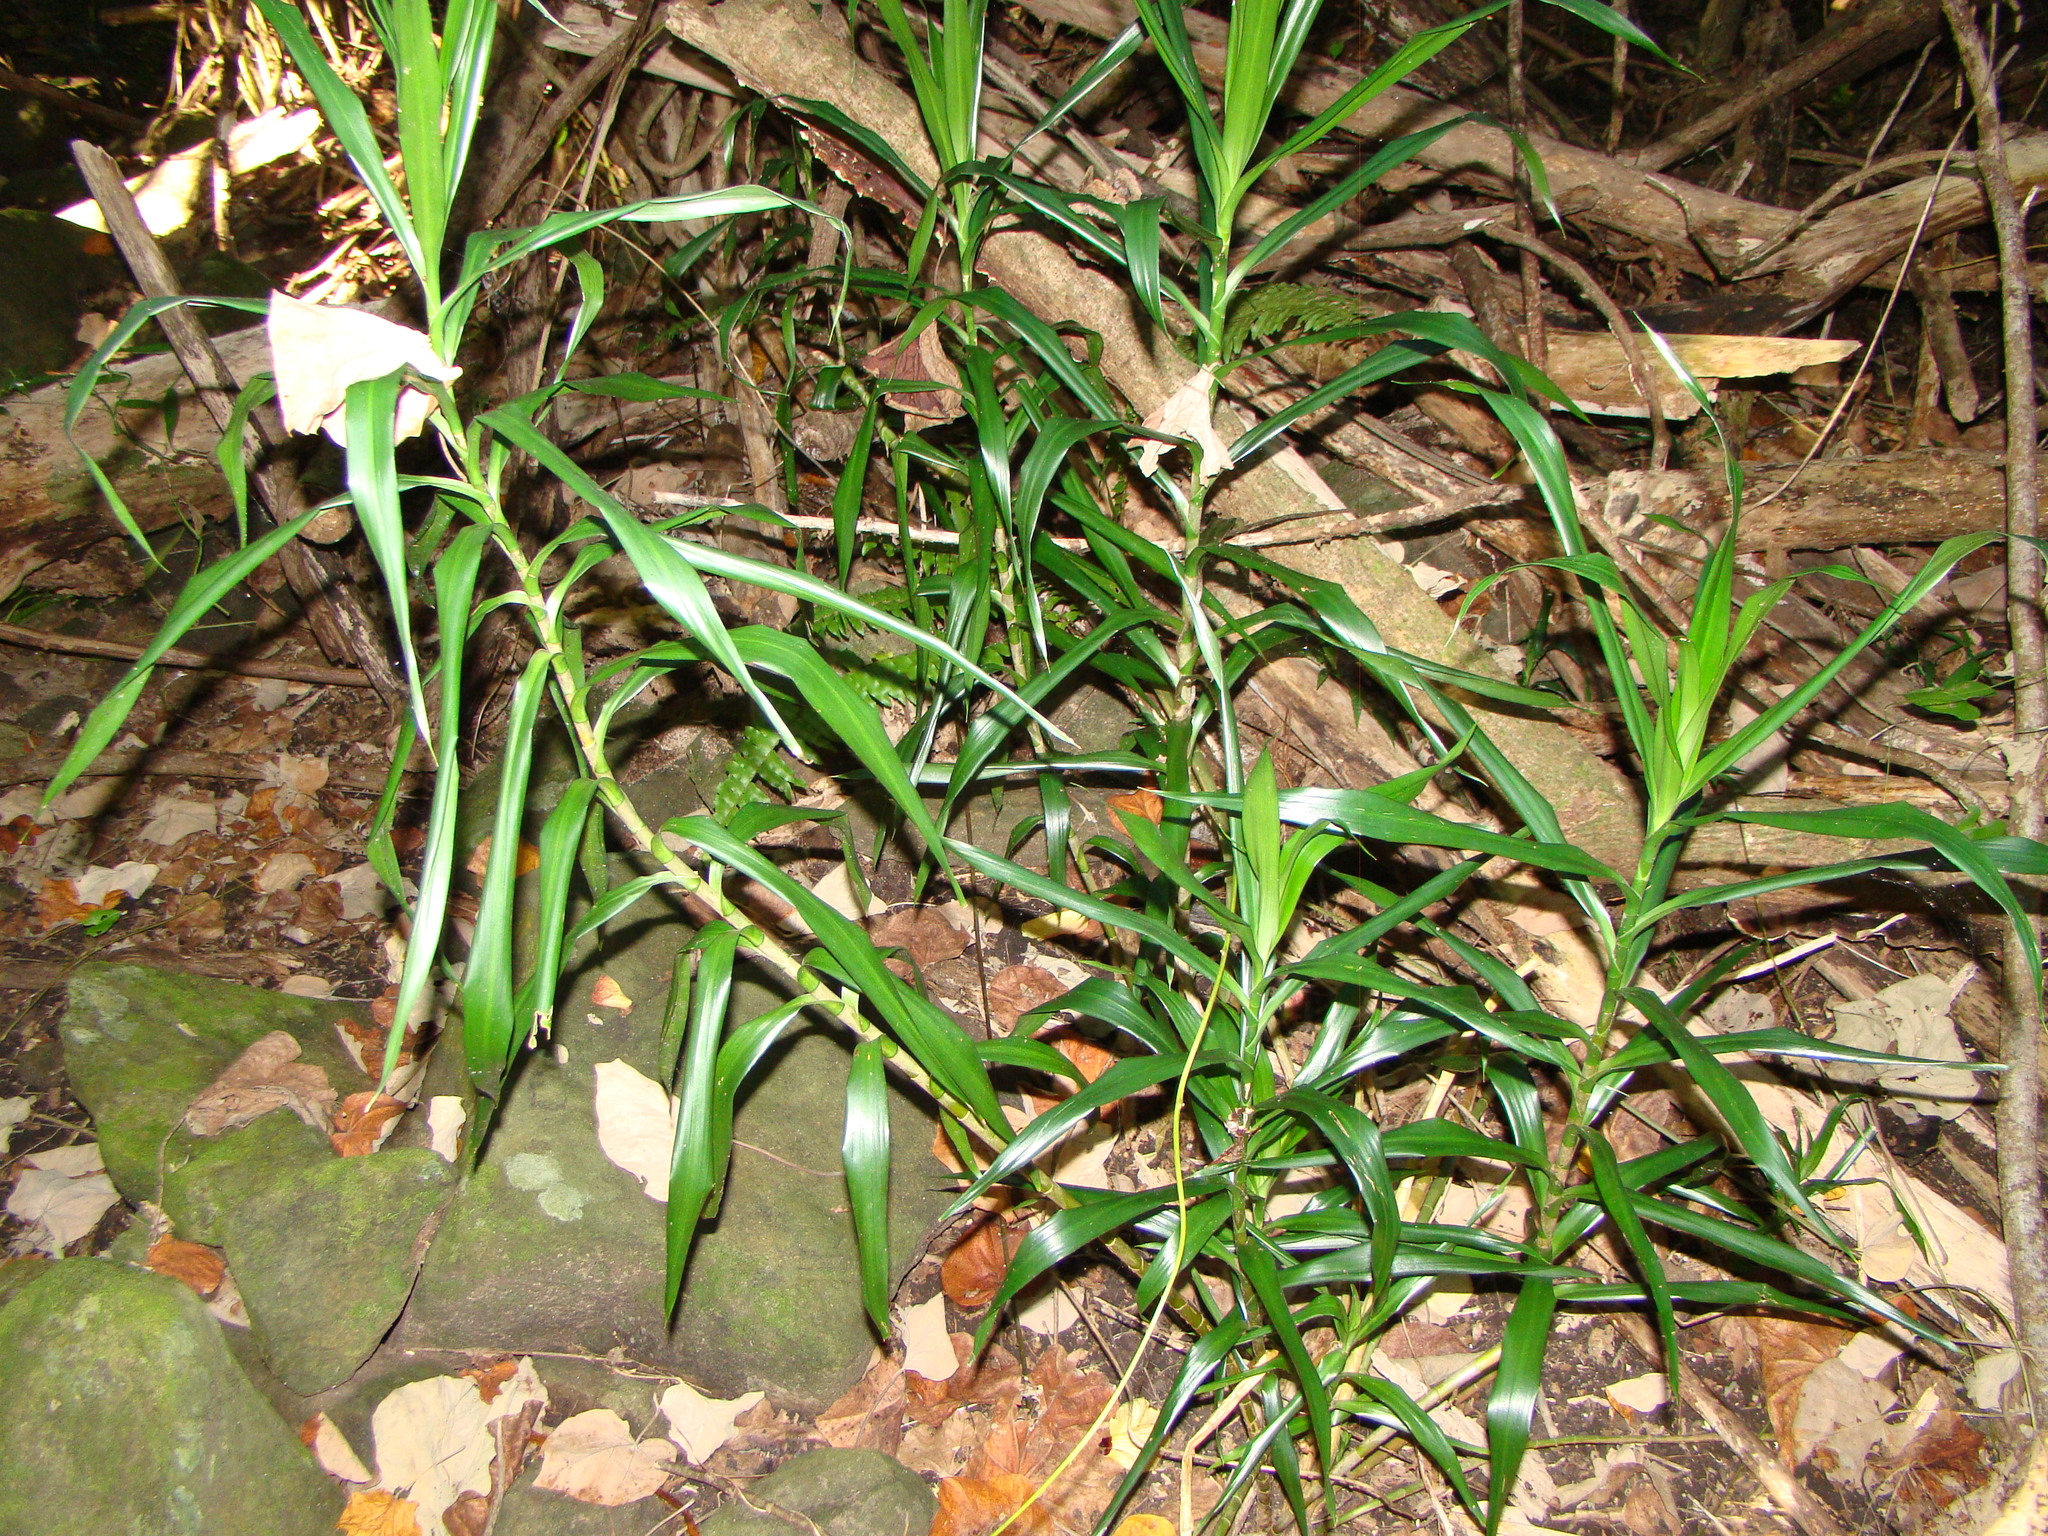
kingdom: Plantae
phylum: Tracheophyta
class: Liliopsida
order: Asparagales
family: Asparagaceae
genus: Dracaena
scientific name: Dracaena angustifolia
